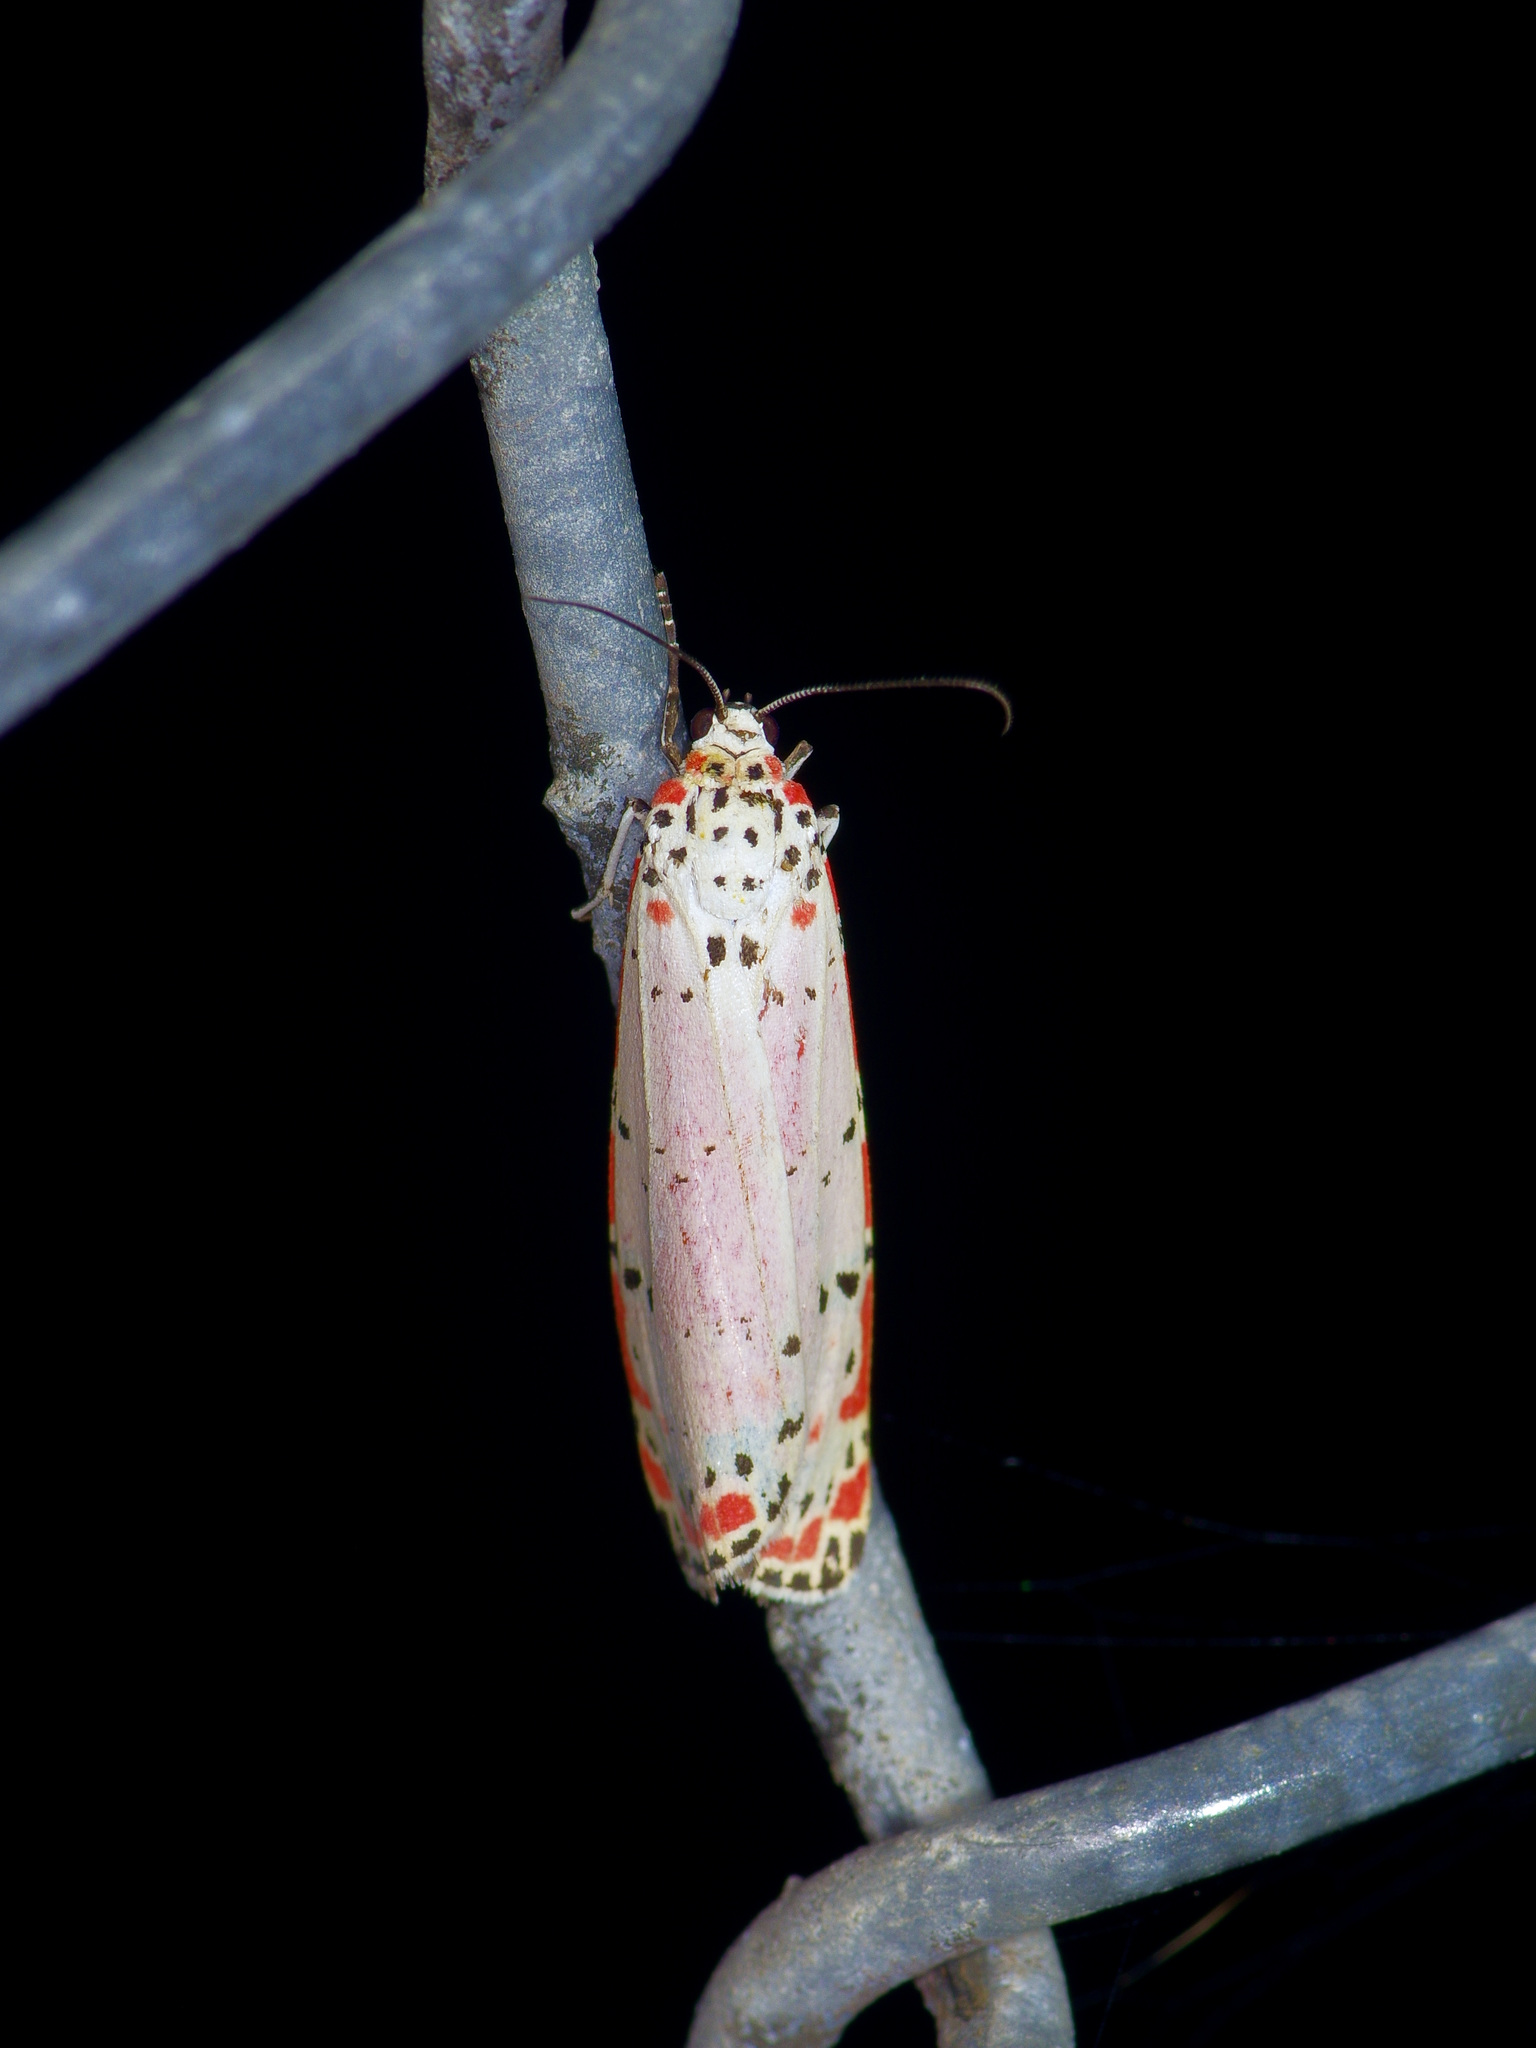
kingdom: Animalia
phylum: Arthropoda
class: Insecta
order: Lepidoptera
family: Erebidae
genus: Utetheisa
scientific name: Utetheisa ornatrix
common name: Beautiful utetheisa
